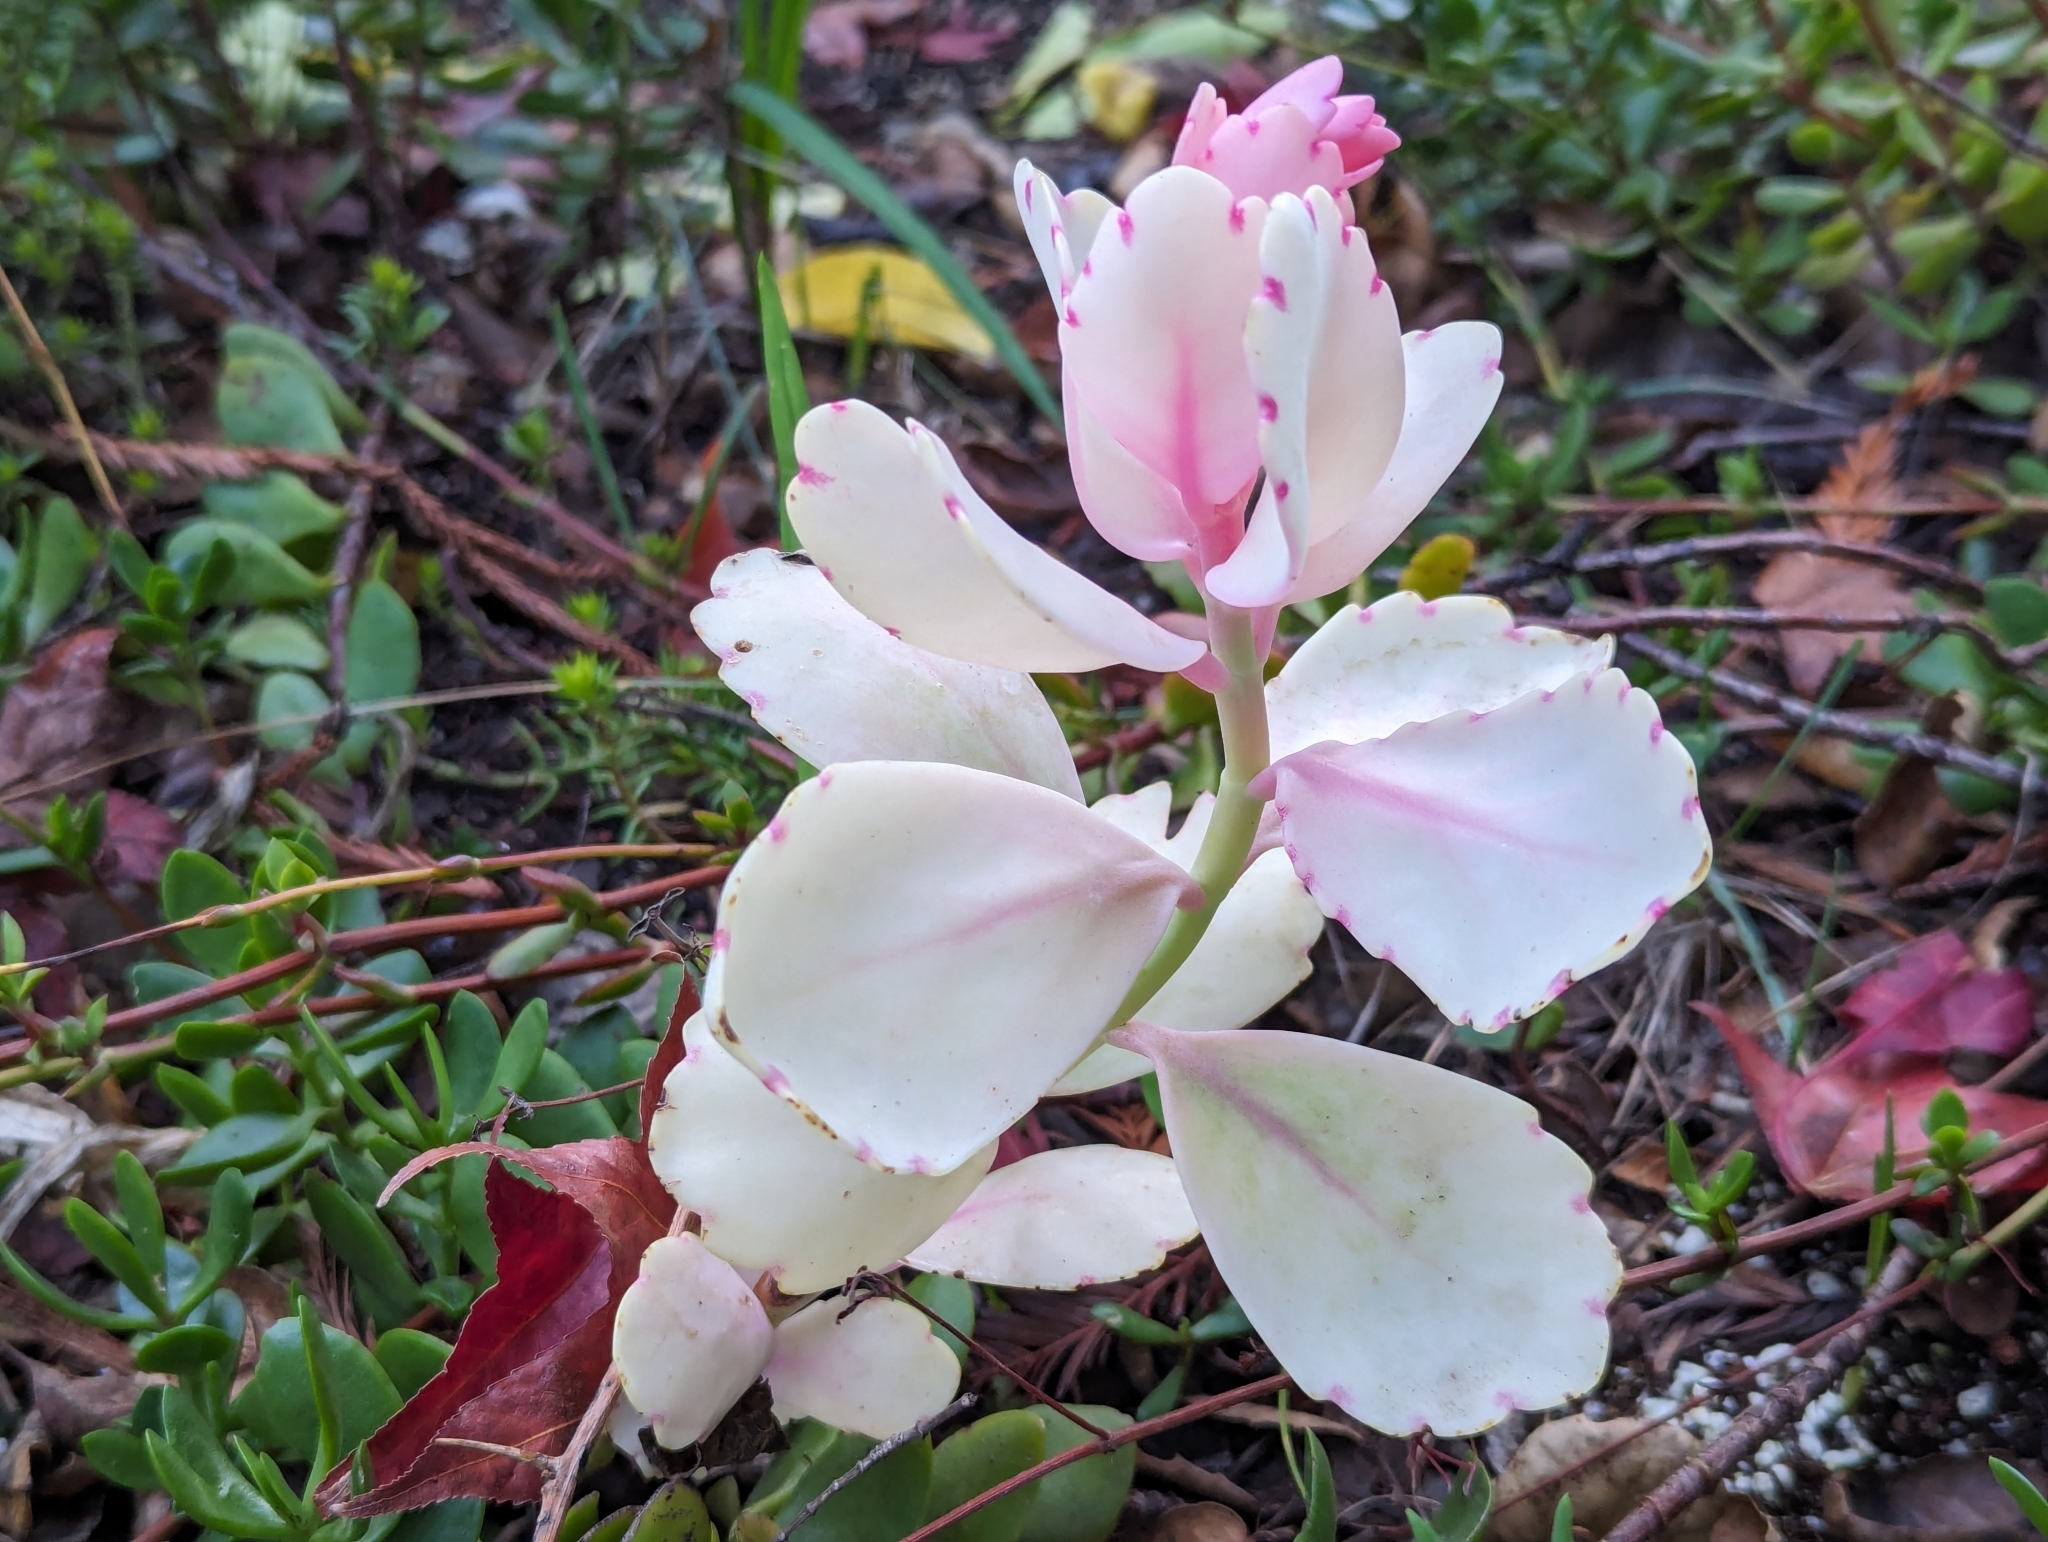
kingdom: Plantae
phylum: Tracheophyta
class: Magnoliopsida
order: Saxifragales
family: Crassulaceae
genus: Kalanchoe
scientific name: Kalanchoe fedtschenkoi
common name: Lavender scallops
